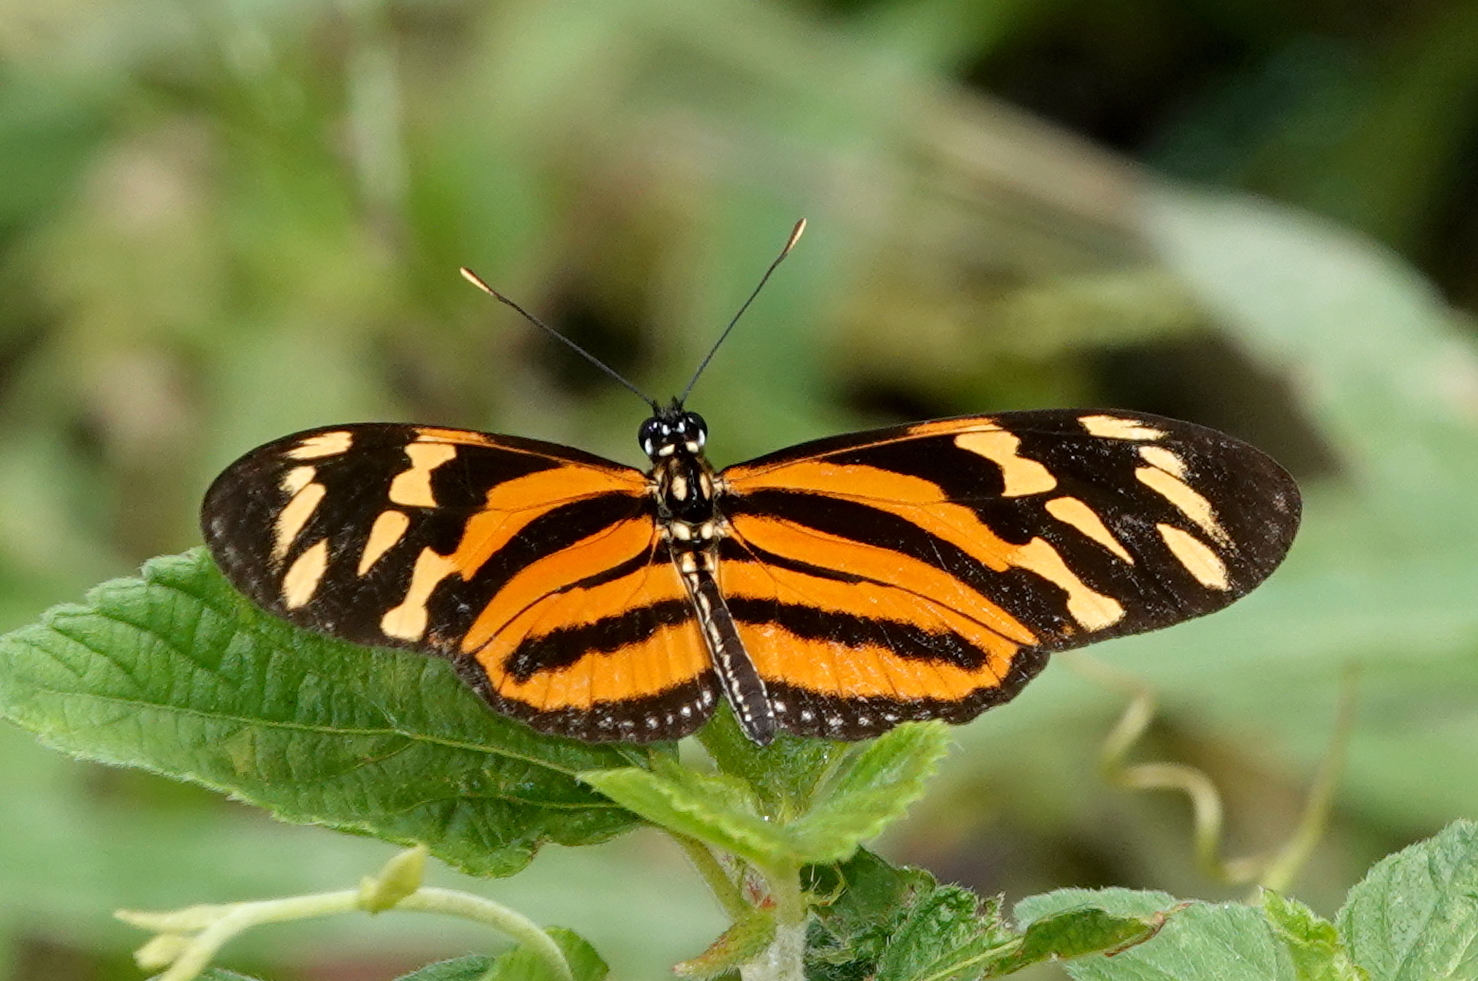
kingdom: Animalia
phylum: Arthropoda
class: Insecta
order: Lepidoptera
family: Nymphalidae
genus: Lycorea
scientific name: Lycorea eva
